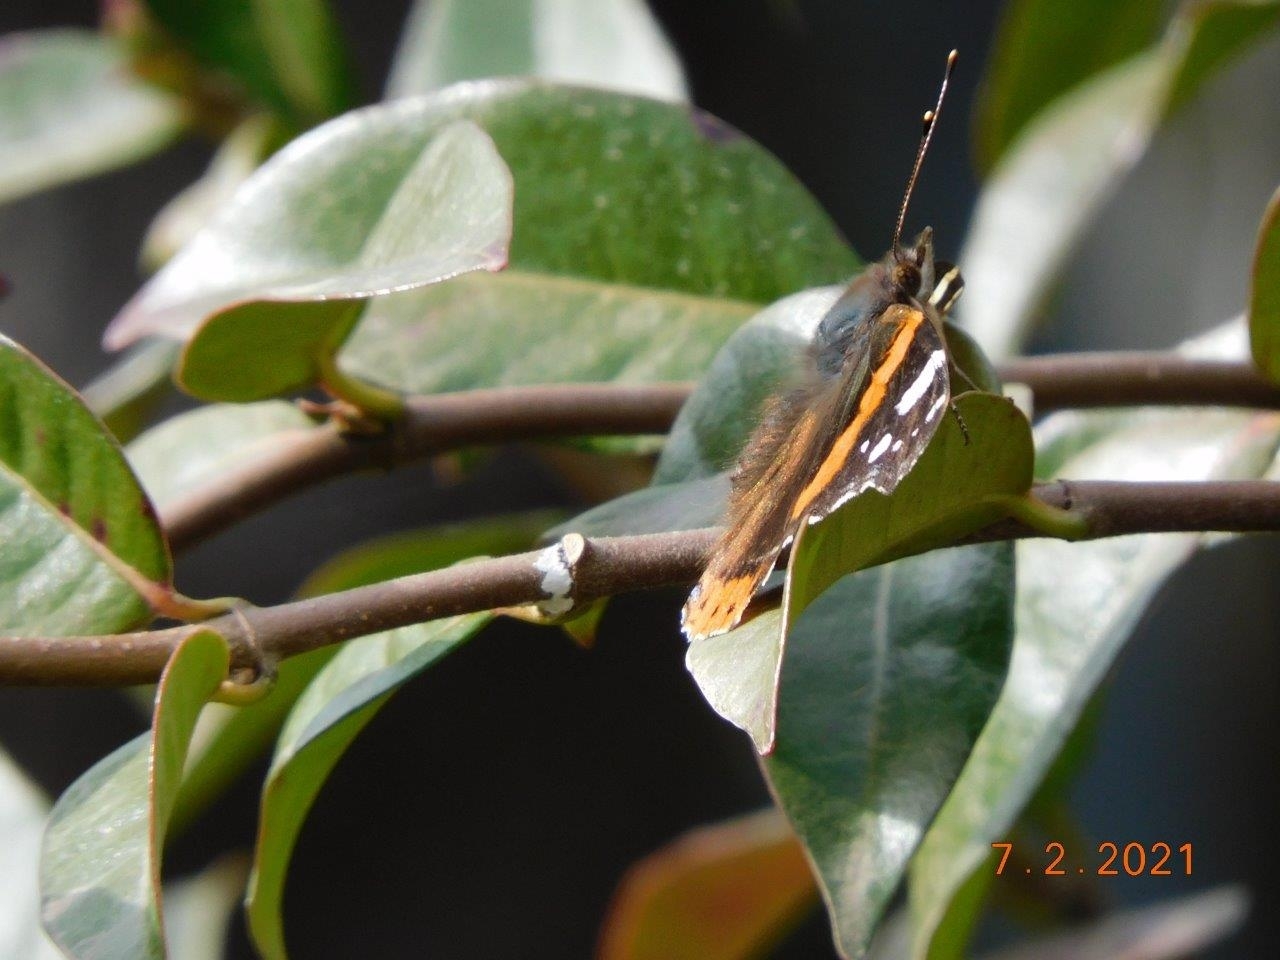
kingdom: Animalia
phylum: Arthropoda
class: Insecta
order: Lepidoptera
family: Nymphalidae
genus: Vanessa
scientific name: Vanessa atalanta
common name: Red admiral
